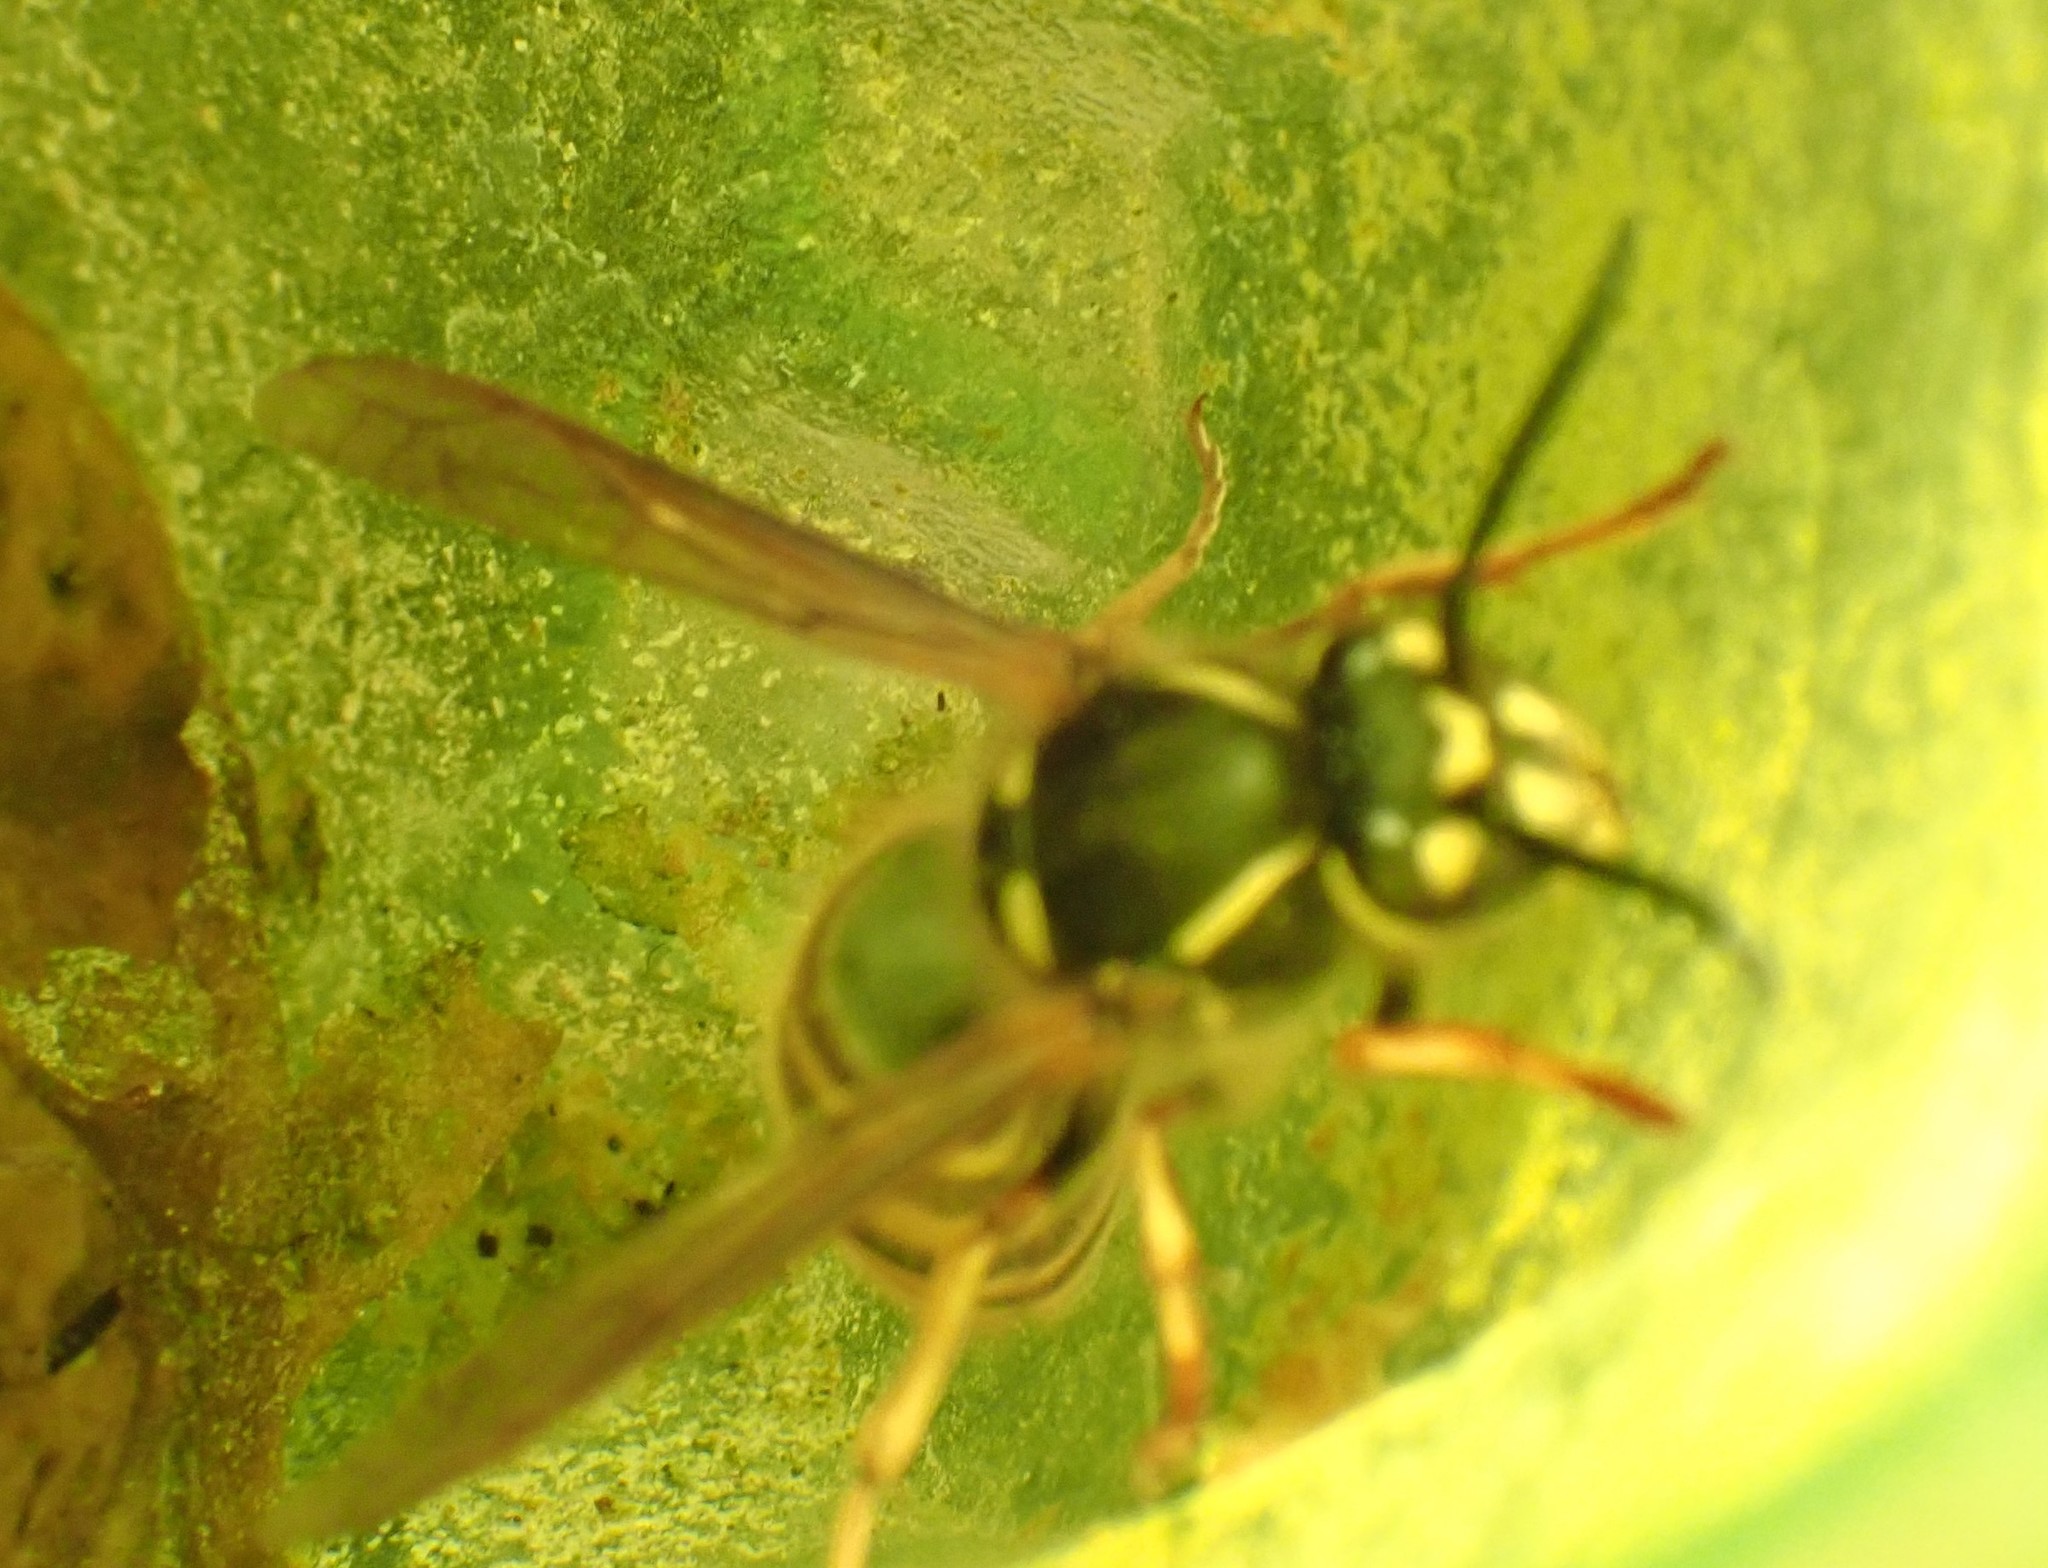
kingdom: Animalia
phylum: Arthropoda
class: Insecta
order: Hymenoptera
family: Vespidae
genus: Vespula
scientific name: Vespula vulgaris
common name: Common wasp
